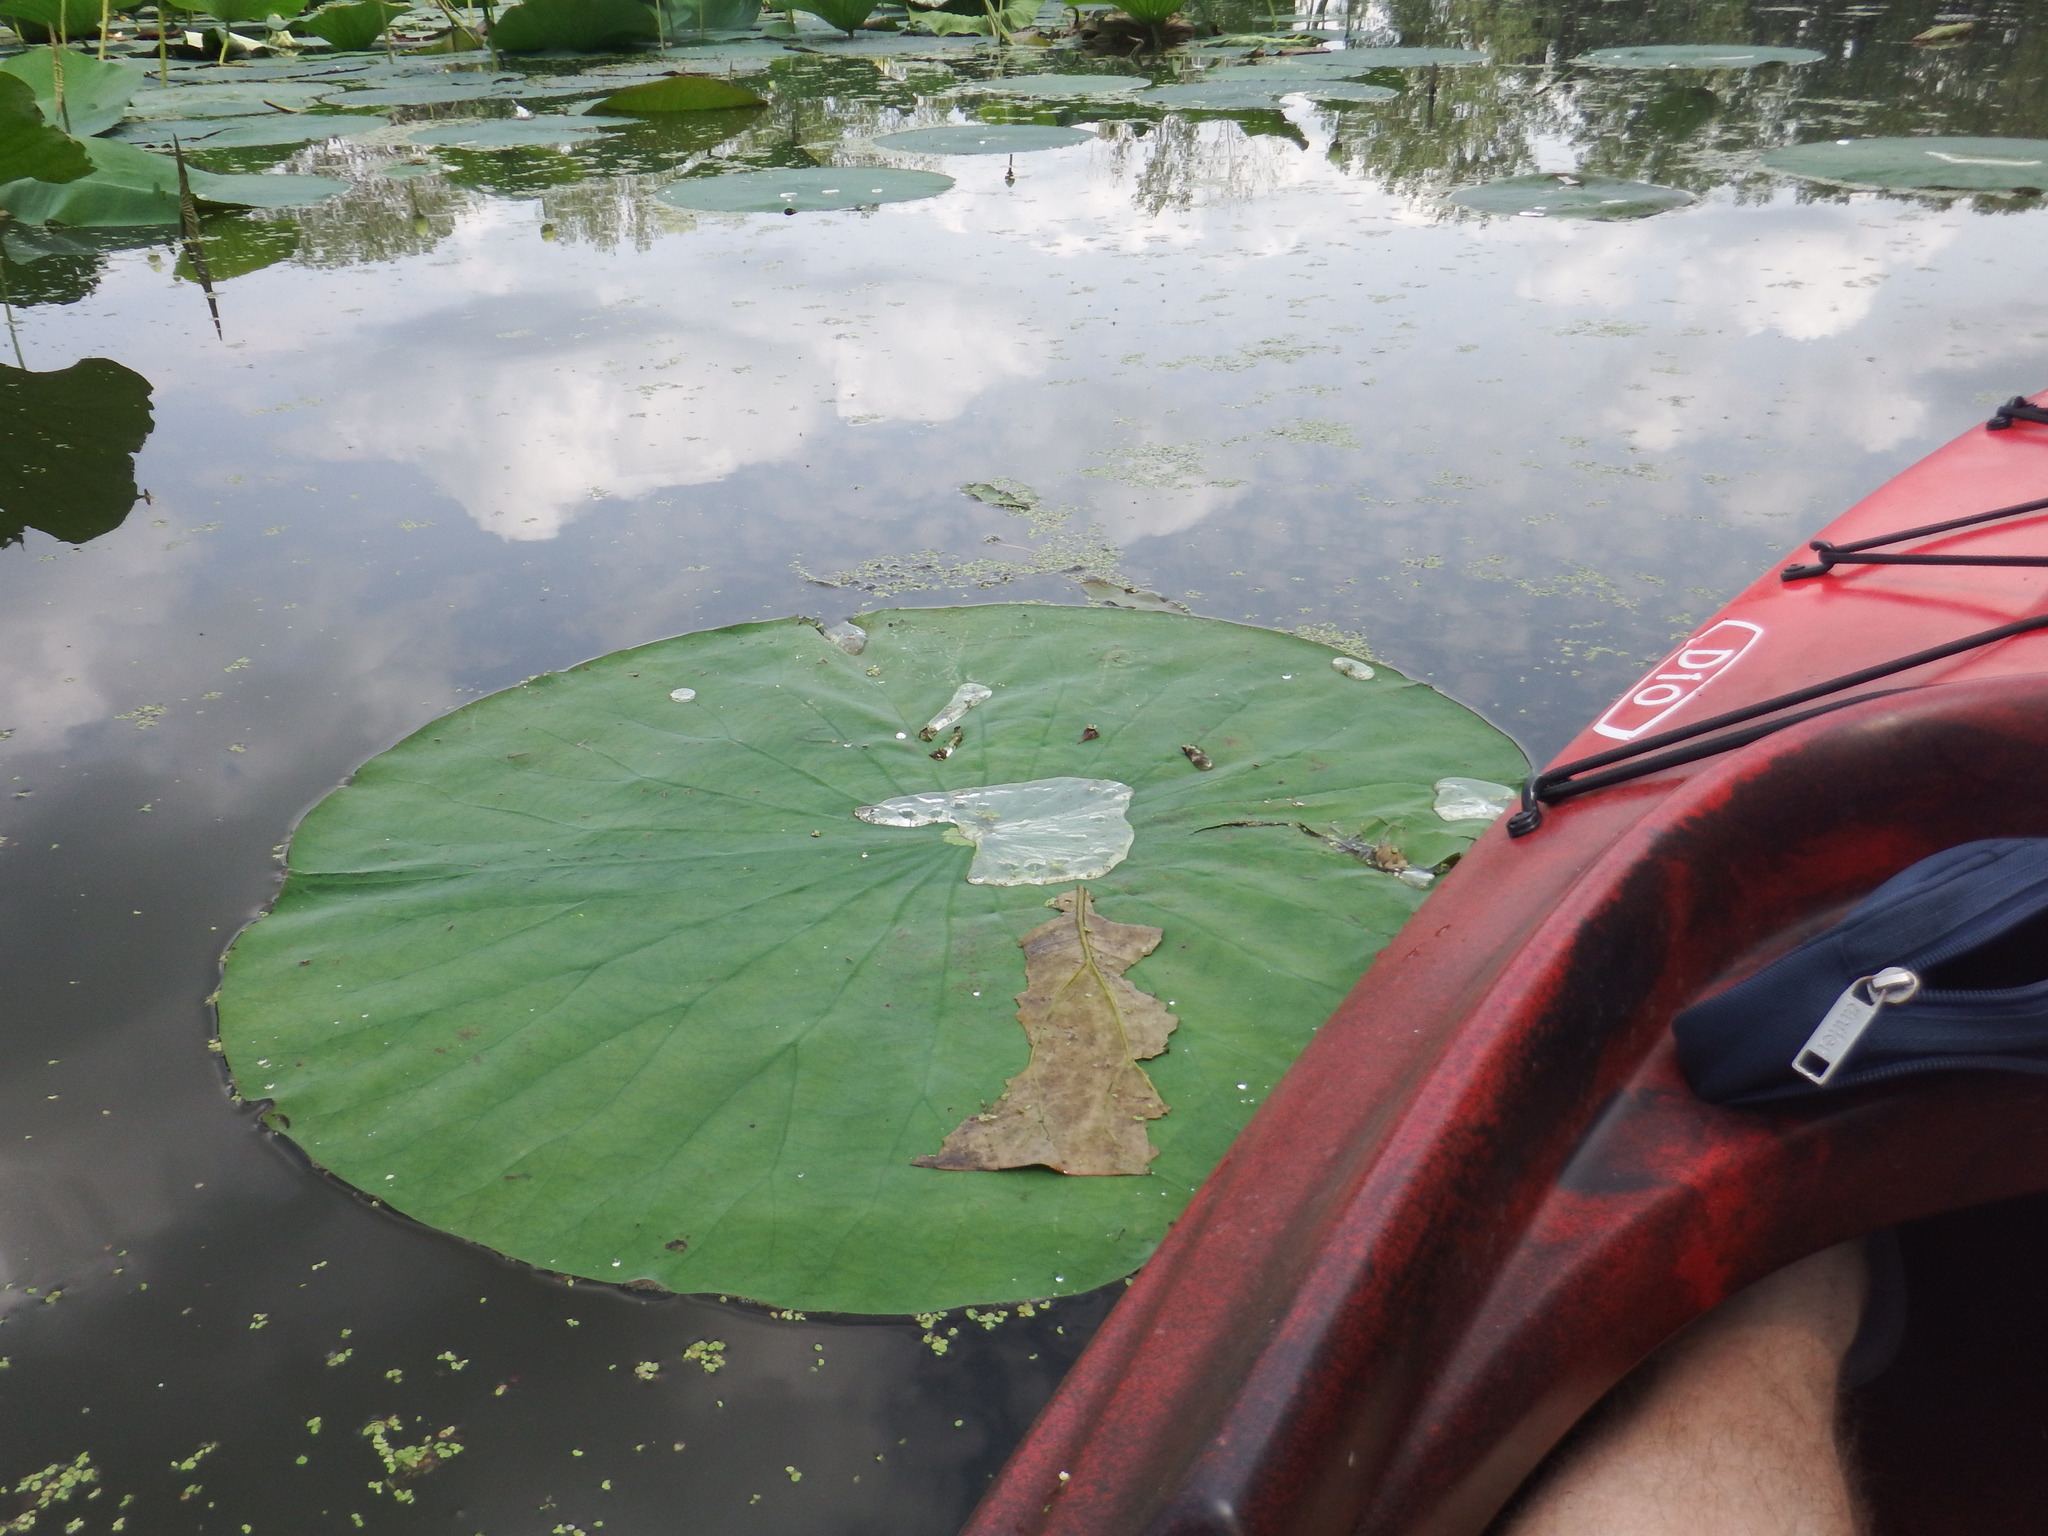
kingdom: Plantae
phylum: Tracheophyta
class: Magnoliopsida
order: Proteales
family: Nelumbonaceae
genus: Nelumbo
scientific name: Nelumbo lutea
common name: American lotus
